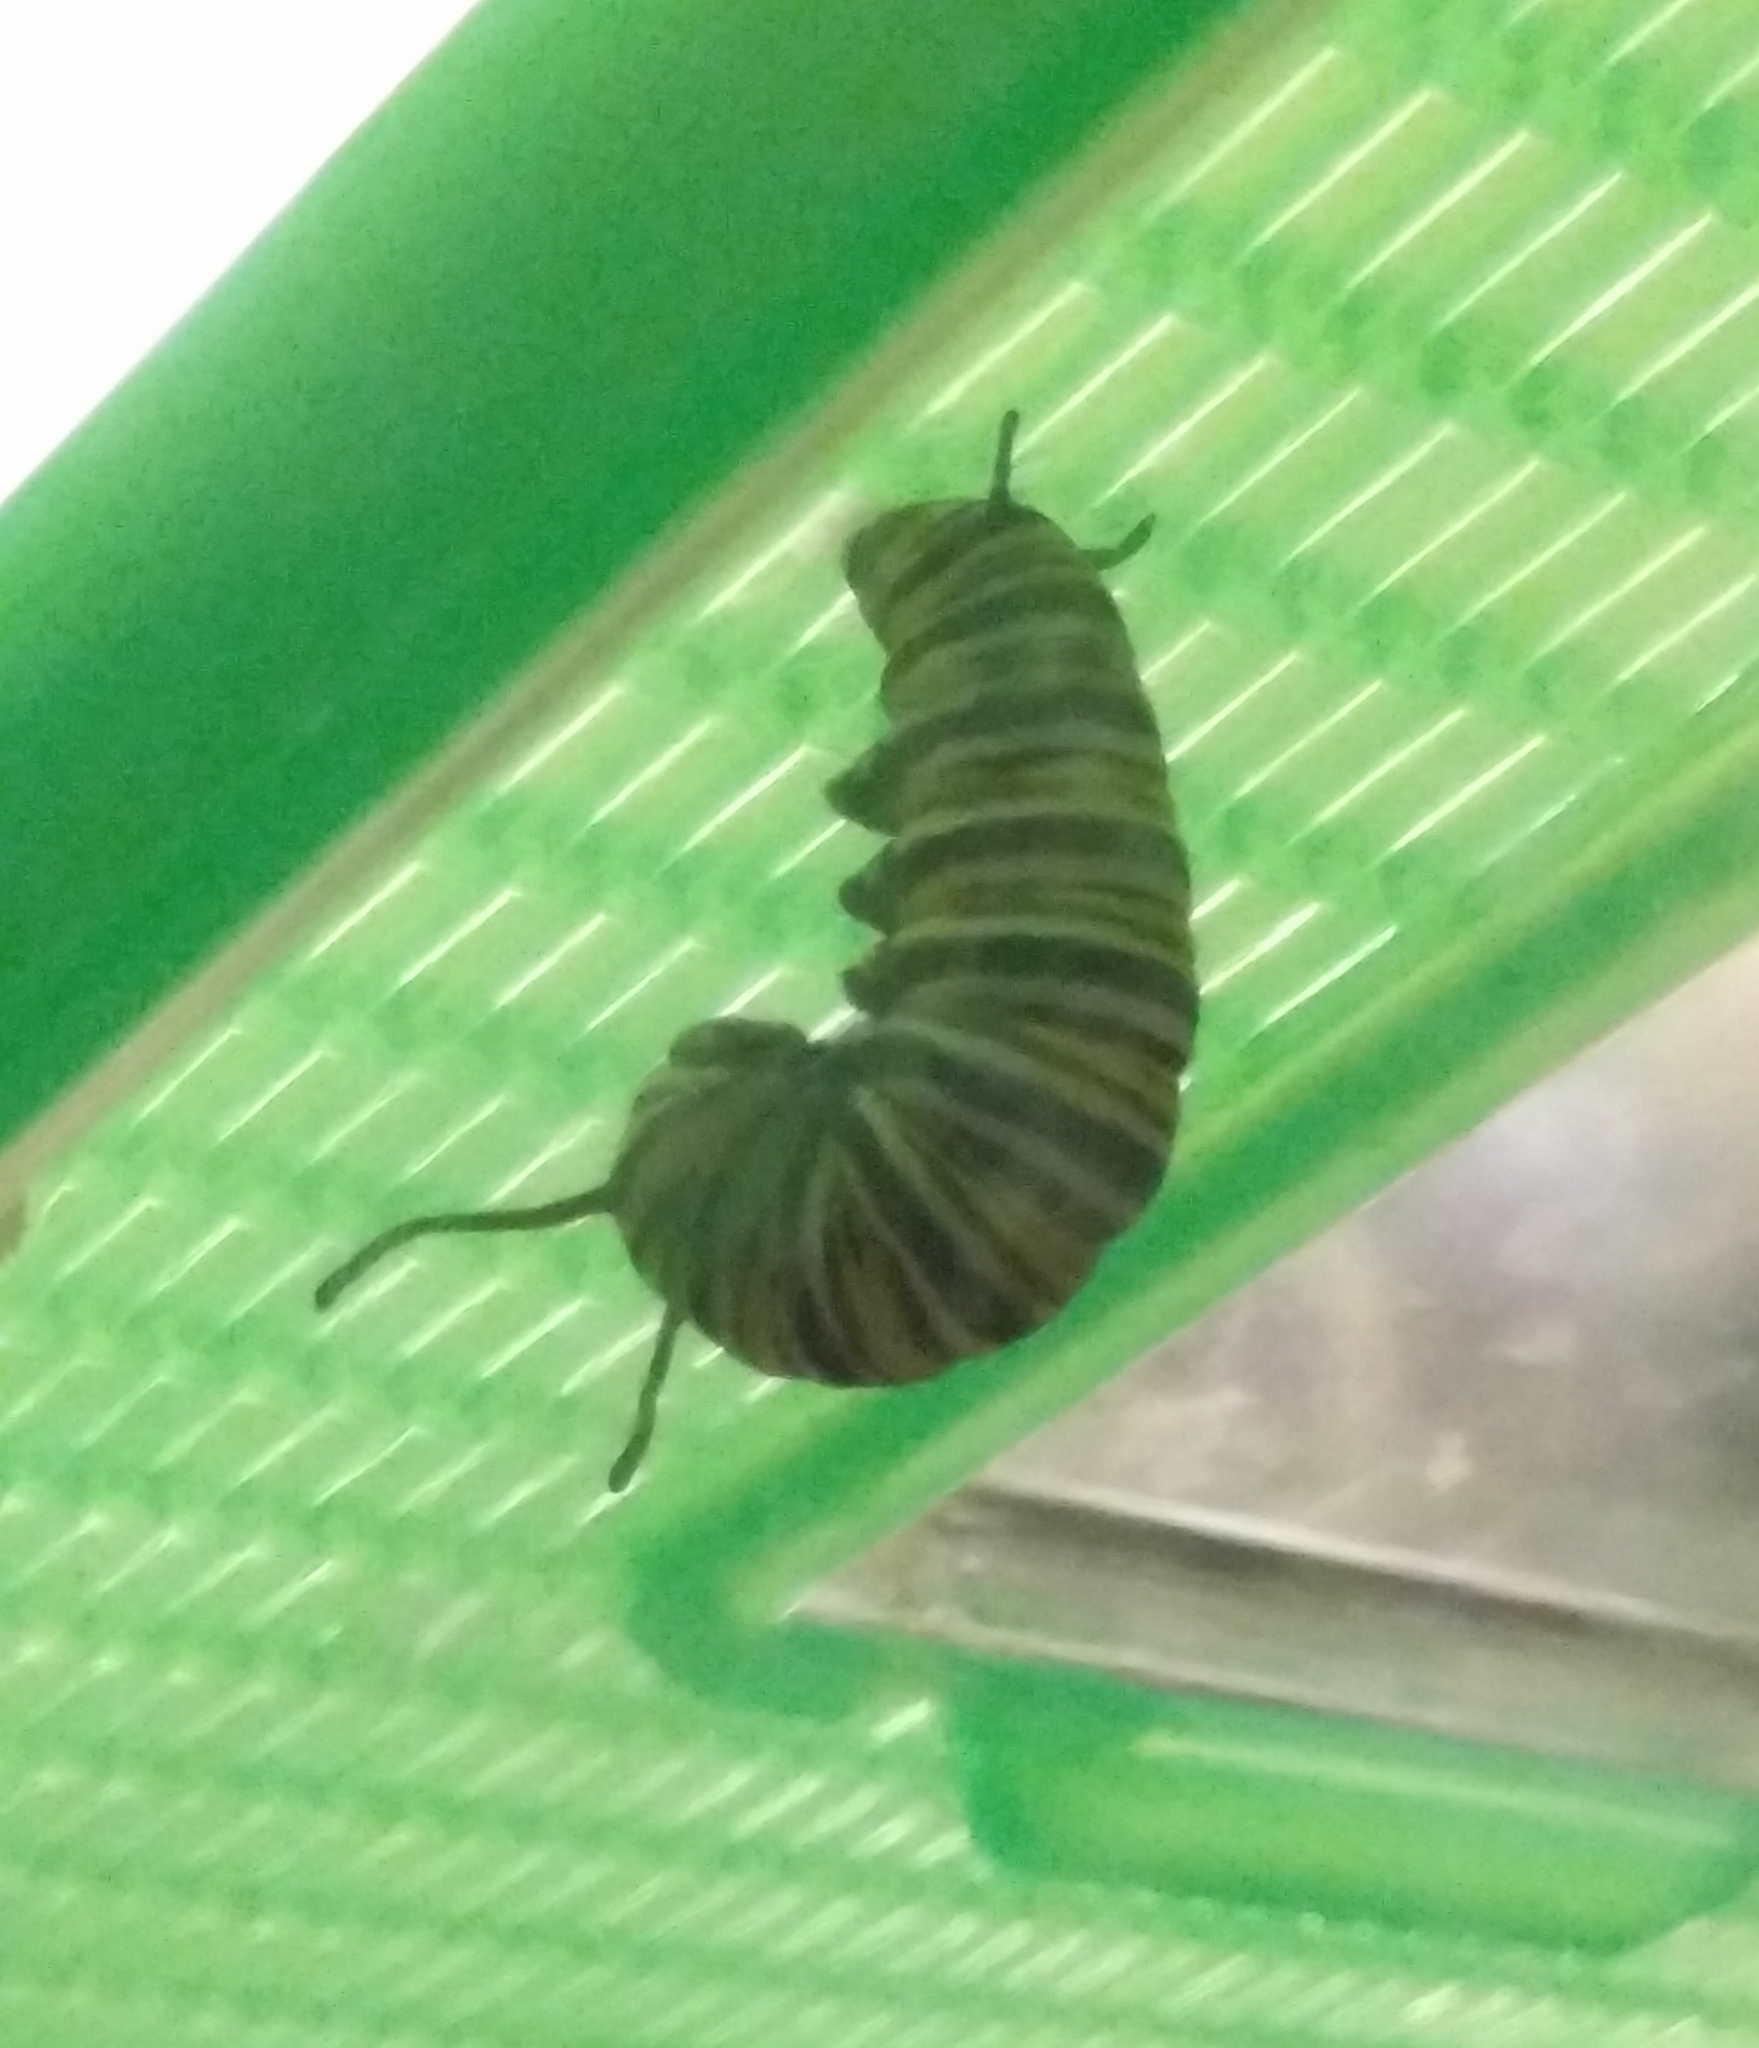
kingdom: Animalia
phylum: Arthropoda
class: Insecta
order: Lepidoptera
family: Nymphalidae
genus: Danaus
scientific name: Danaus plexippus
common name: Monarch
